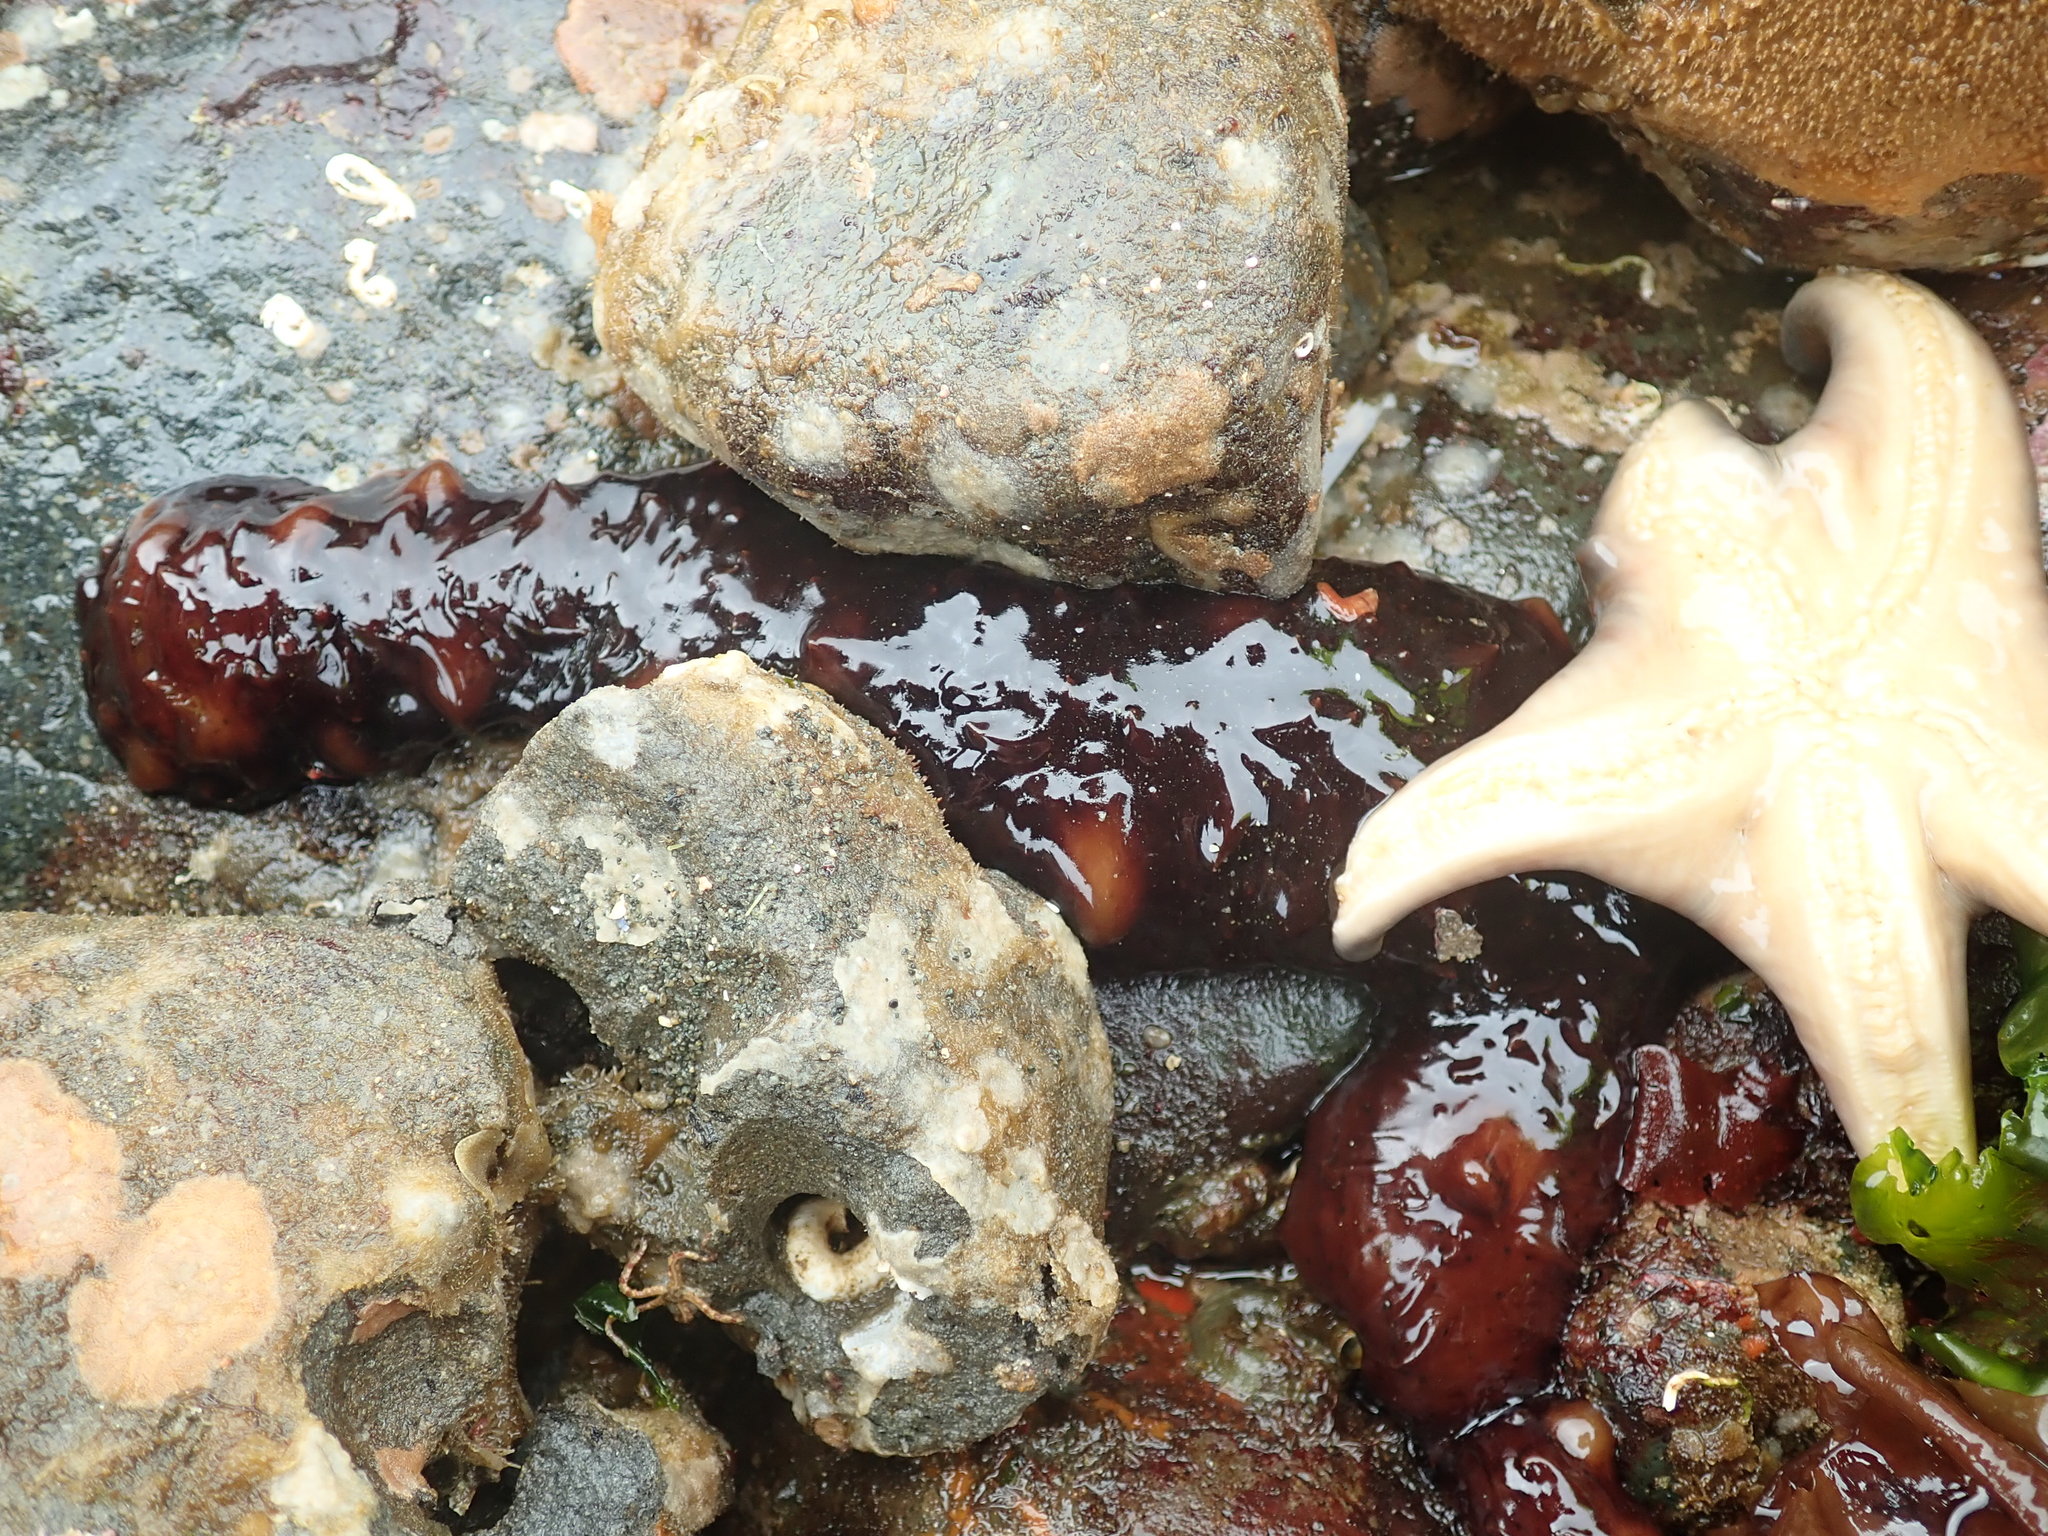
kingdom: Animalia
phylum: Echinodermata
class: Holothuroidea
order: Synallactida
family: Stichopodidae
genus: Apostichopus
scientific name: Apostichopus californicus
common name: California sea cucumber
